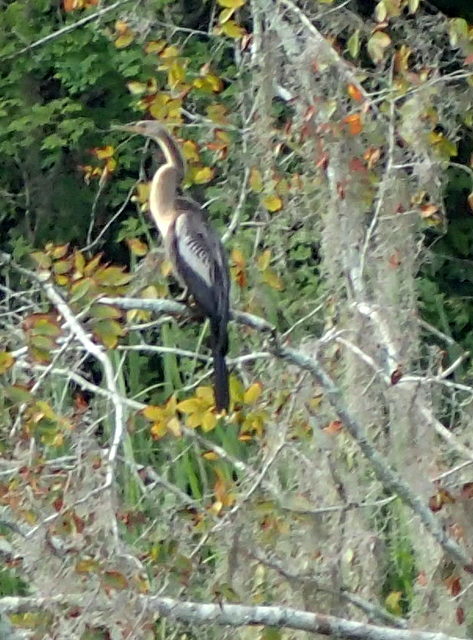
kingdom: Animalia
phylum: Chordata
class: Aves
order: Suliformes
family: Anhingidae
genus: Anhinga
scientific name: Anhinga anhinga
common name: Anhinga
